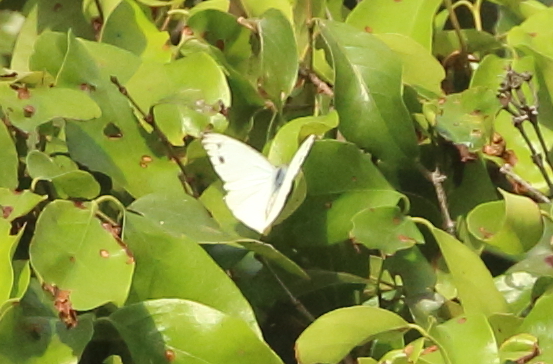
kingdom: Animalia
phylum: Arthropoda
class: Insecta
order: Lepidoptera
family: Pieridae
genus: Appias
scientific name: Appias paulina
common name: Ceylon lesser albatross
